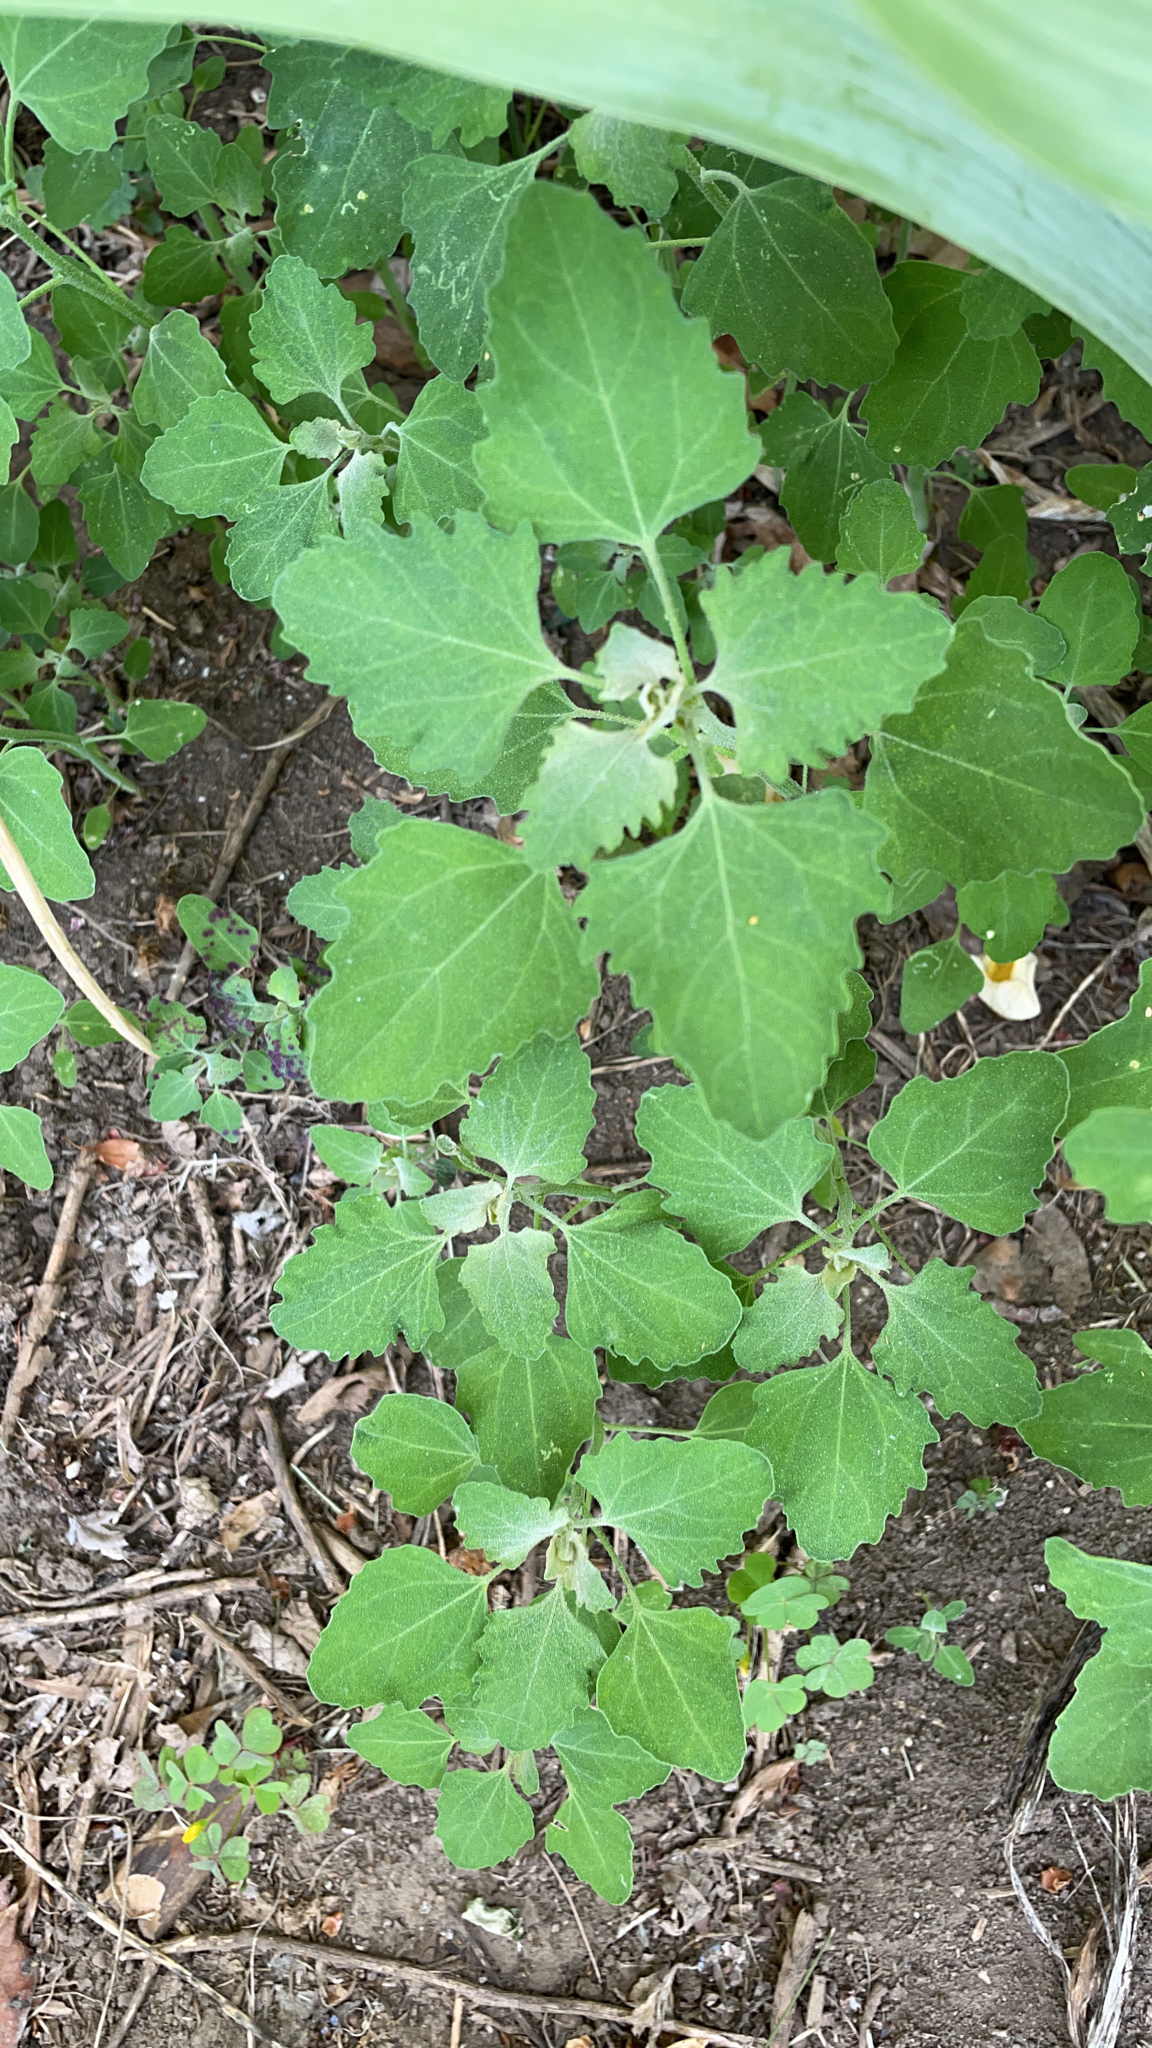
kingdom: Plantae
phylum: Tracheophyta
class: Magnoliopsida
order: Caryophyllales
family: Amaranthaceae
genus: Chenopodium
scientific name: Chenopodium album
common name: Fat-hen
